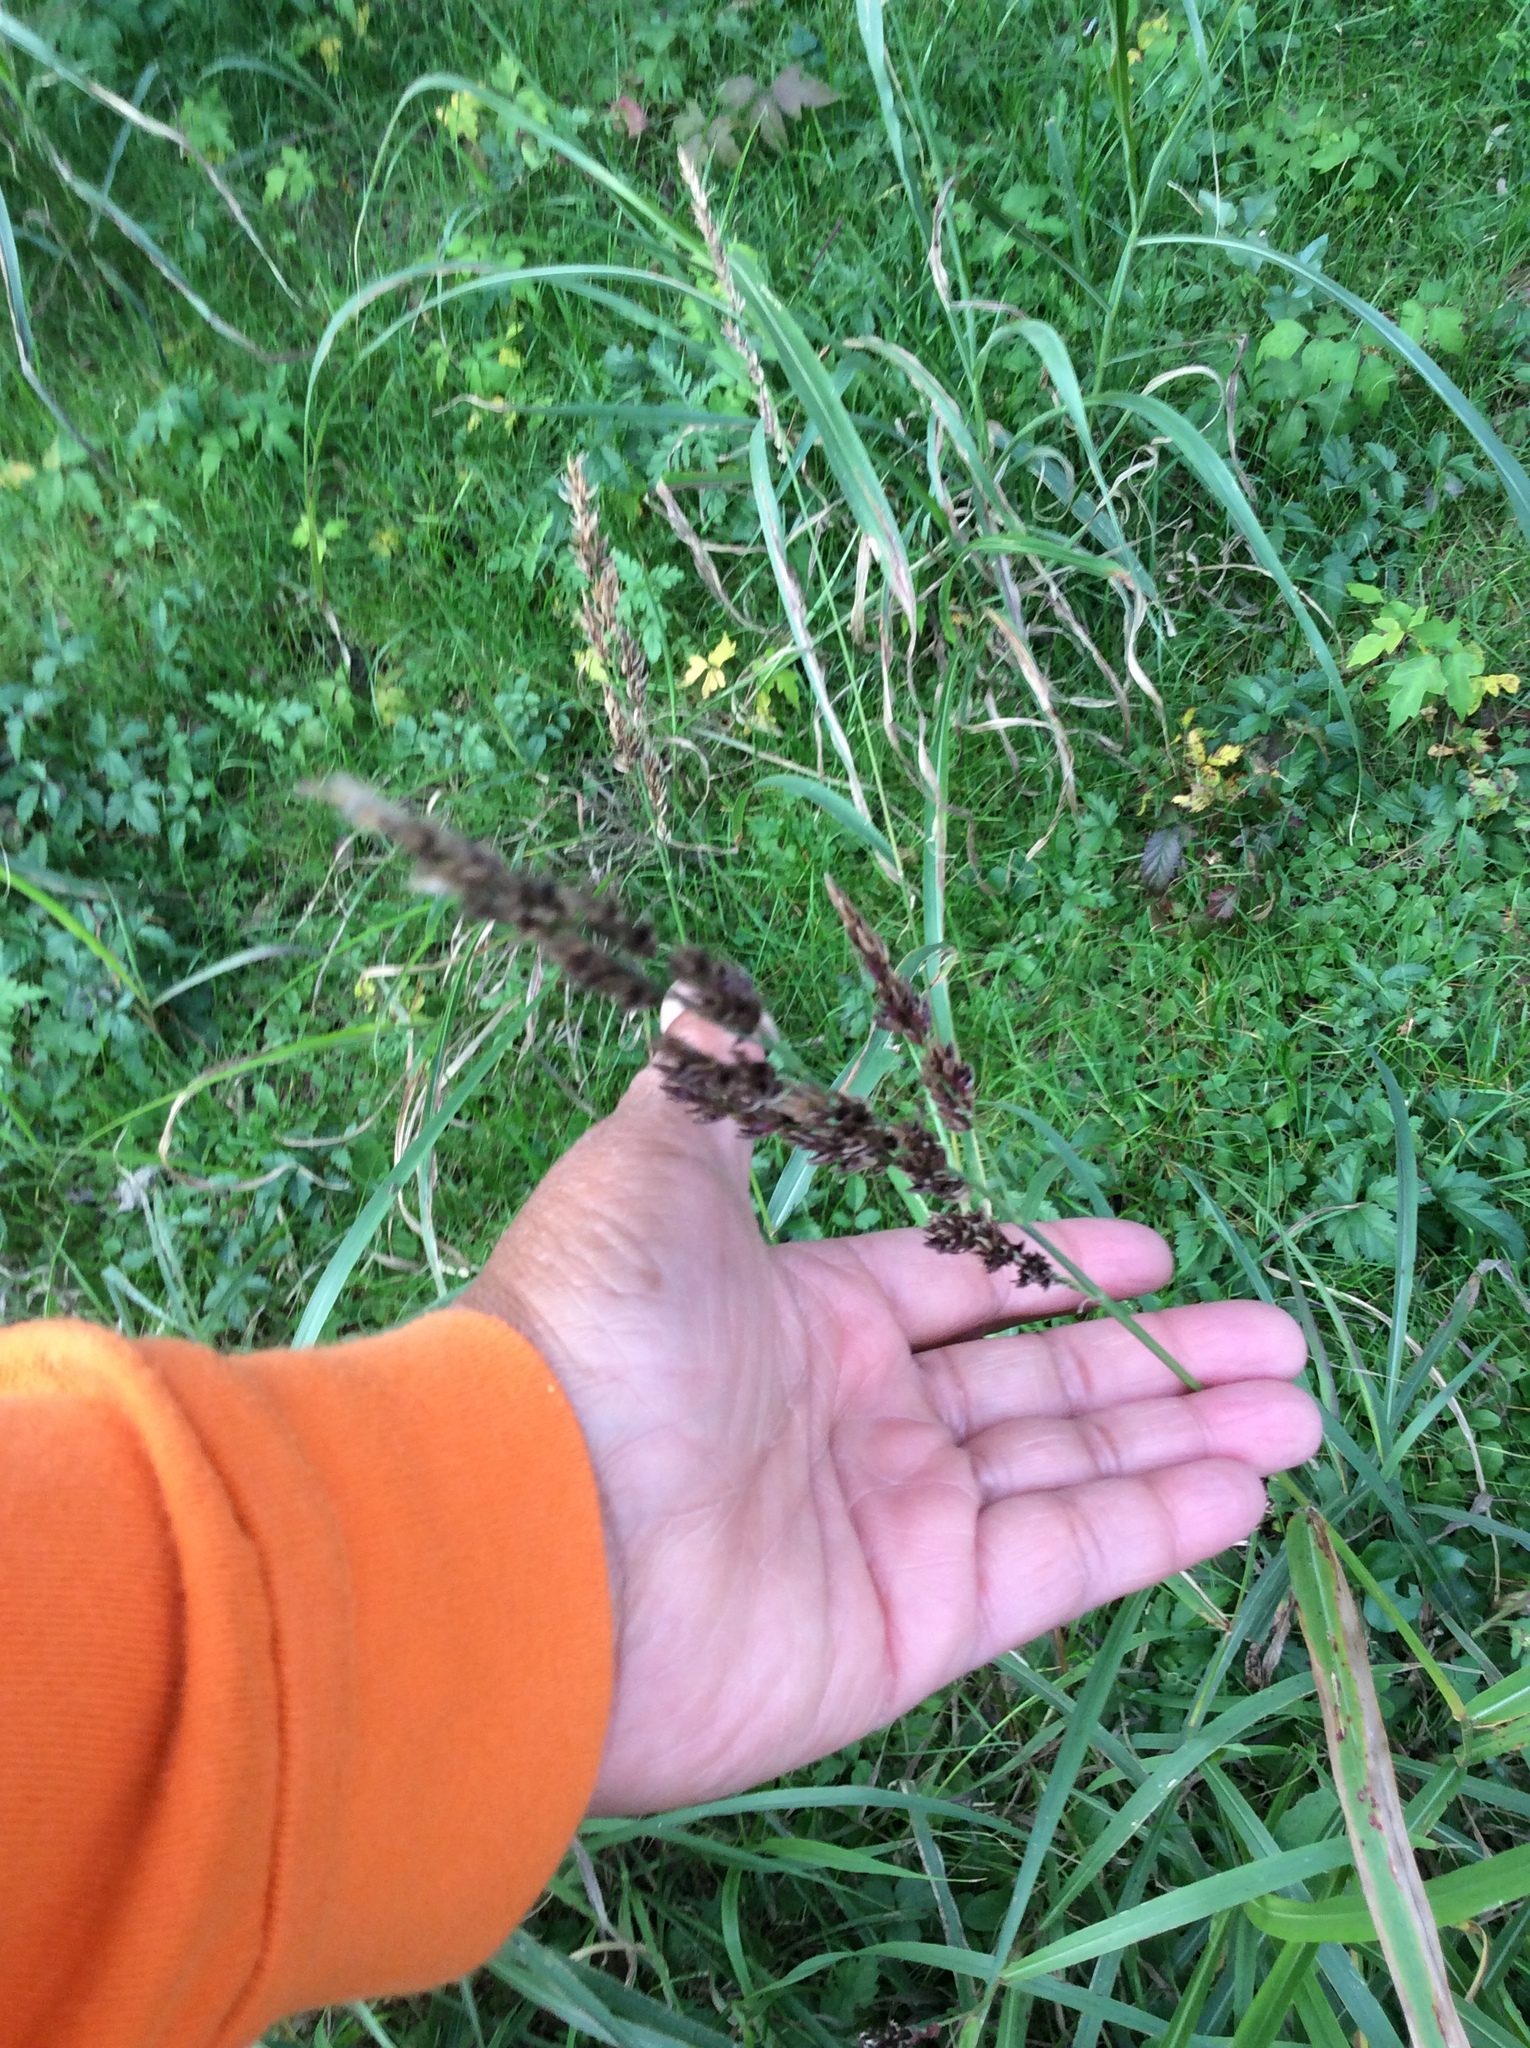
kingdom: Plantae
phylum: Tracheophyta
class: Liliopsida
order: Poales
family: Poaceae
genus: Sorghum
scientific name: Sorghum halepense
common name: Johnson-grass
